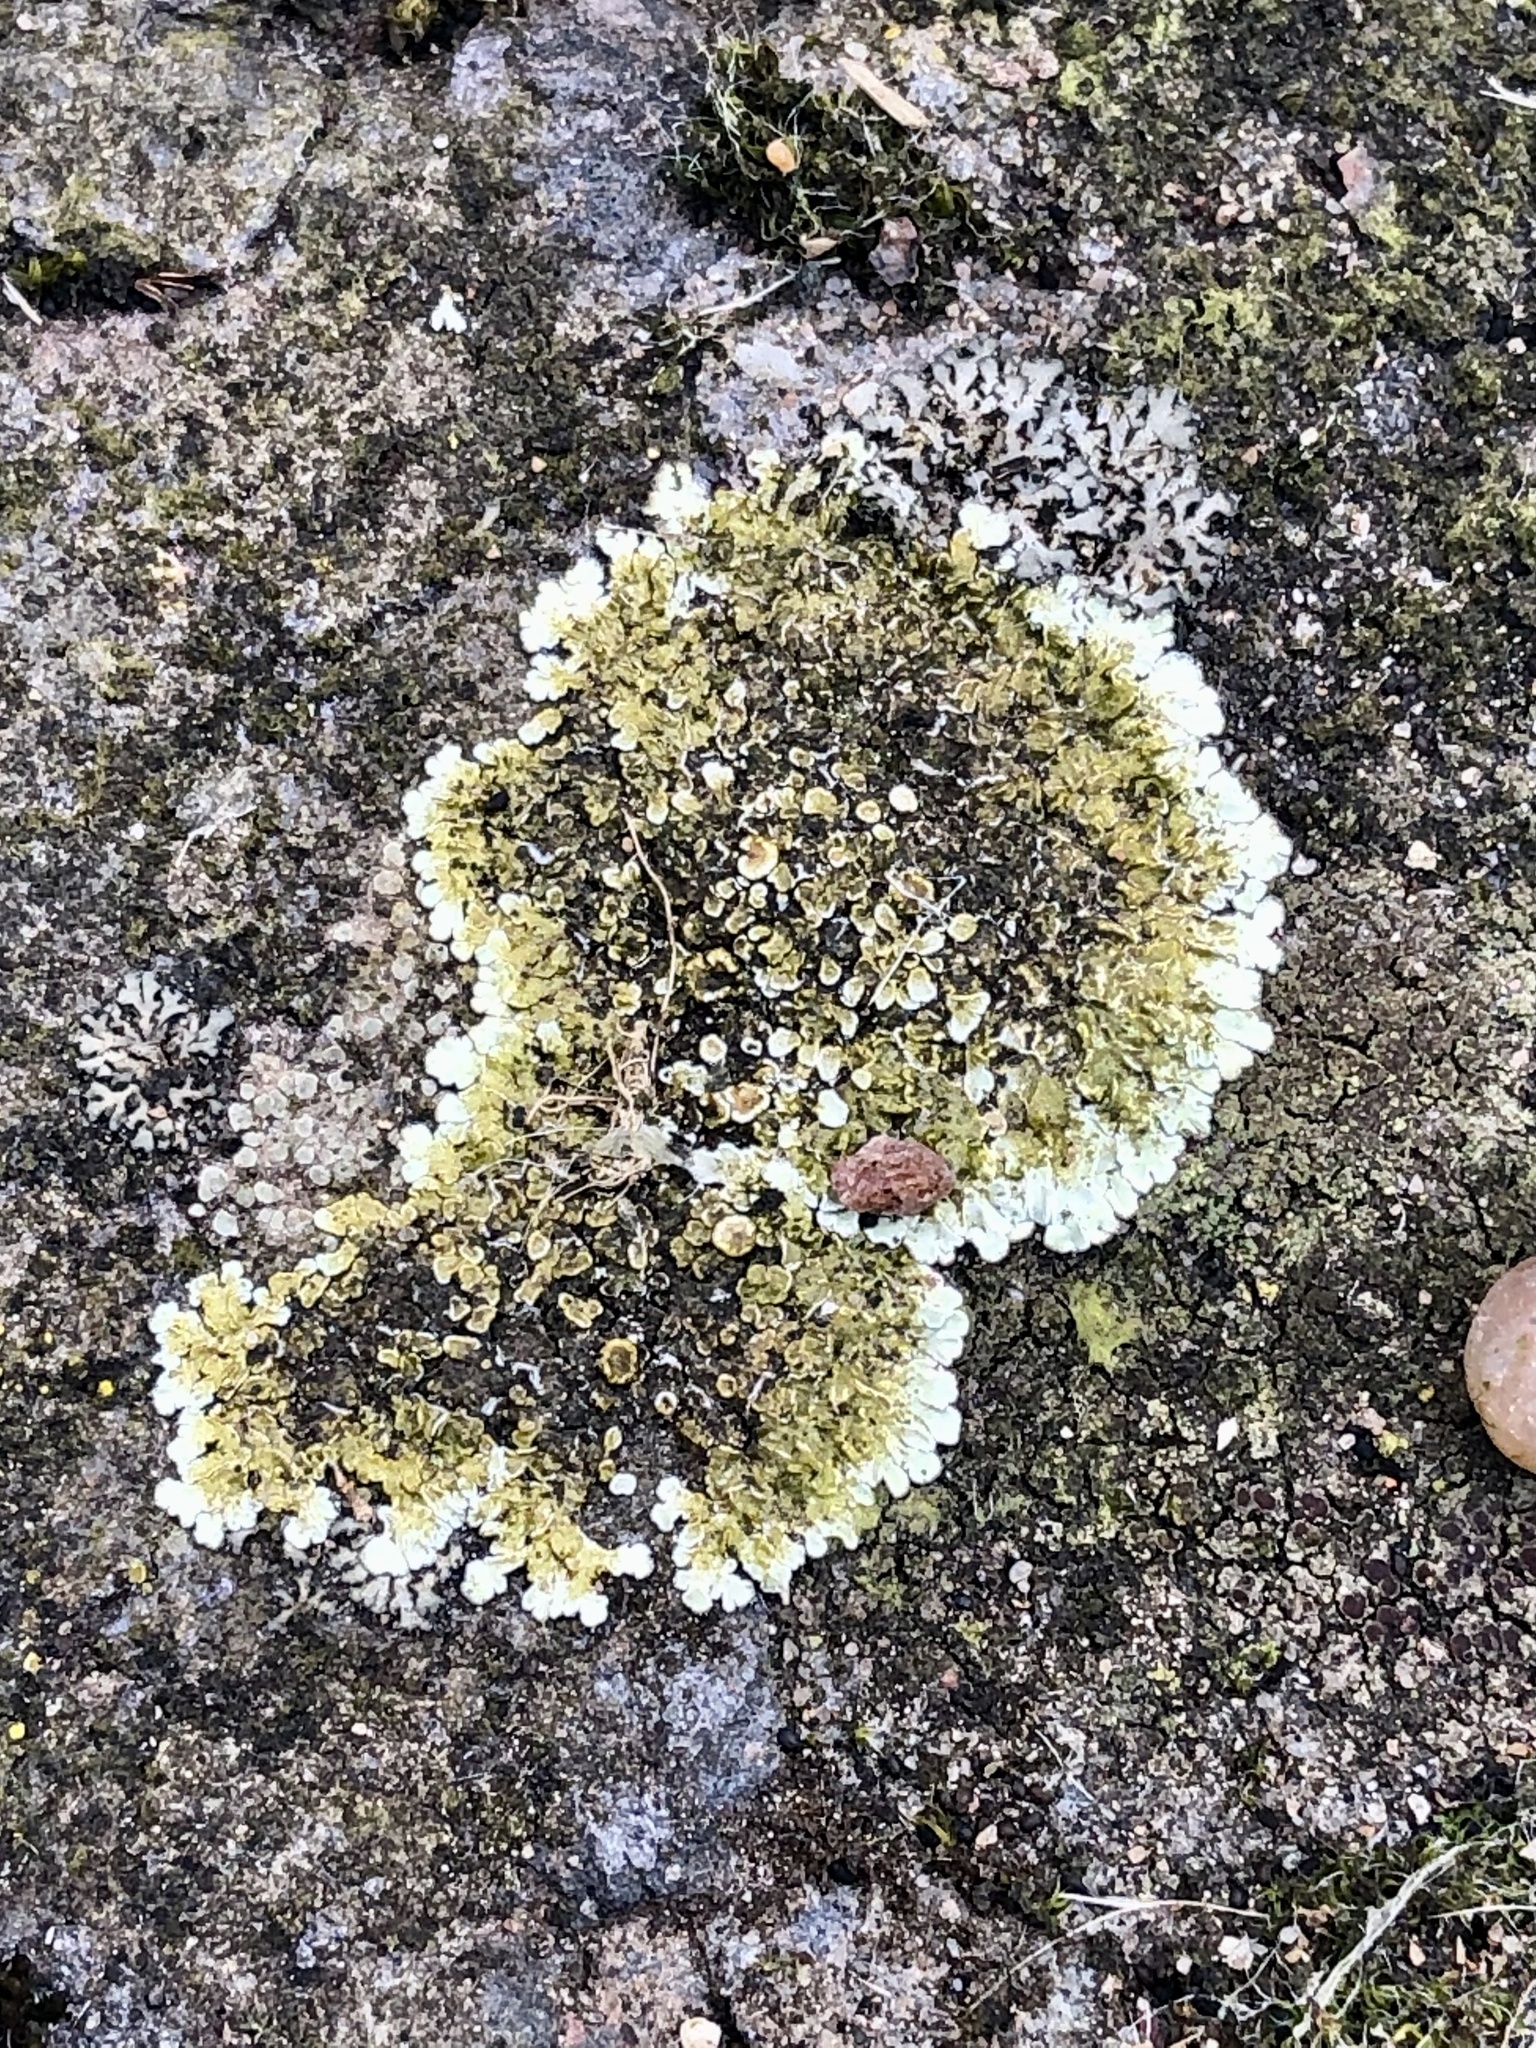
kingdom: Fungi
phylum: Ascomycota
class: Lecanoromycetes
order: Lecanorales
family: Lecanoraceae
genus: Protoparmeliopsis
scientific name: Protoparmeliopsis muralis
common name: Stonewall rim lichen
